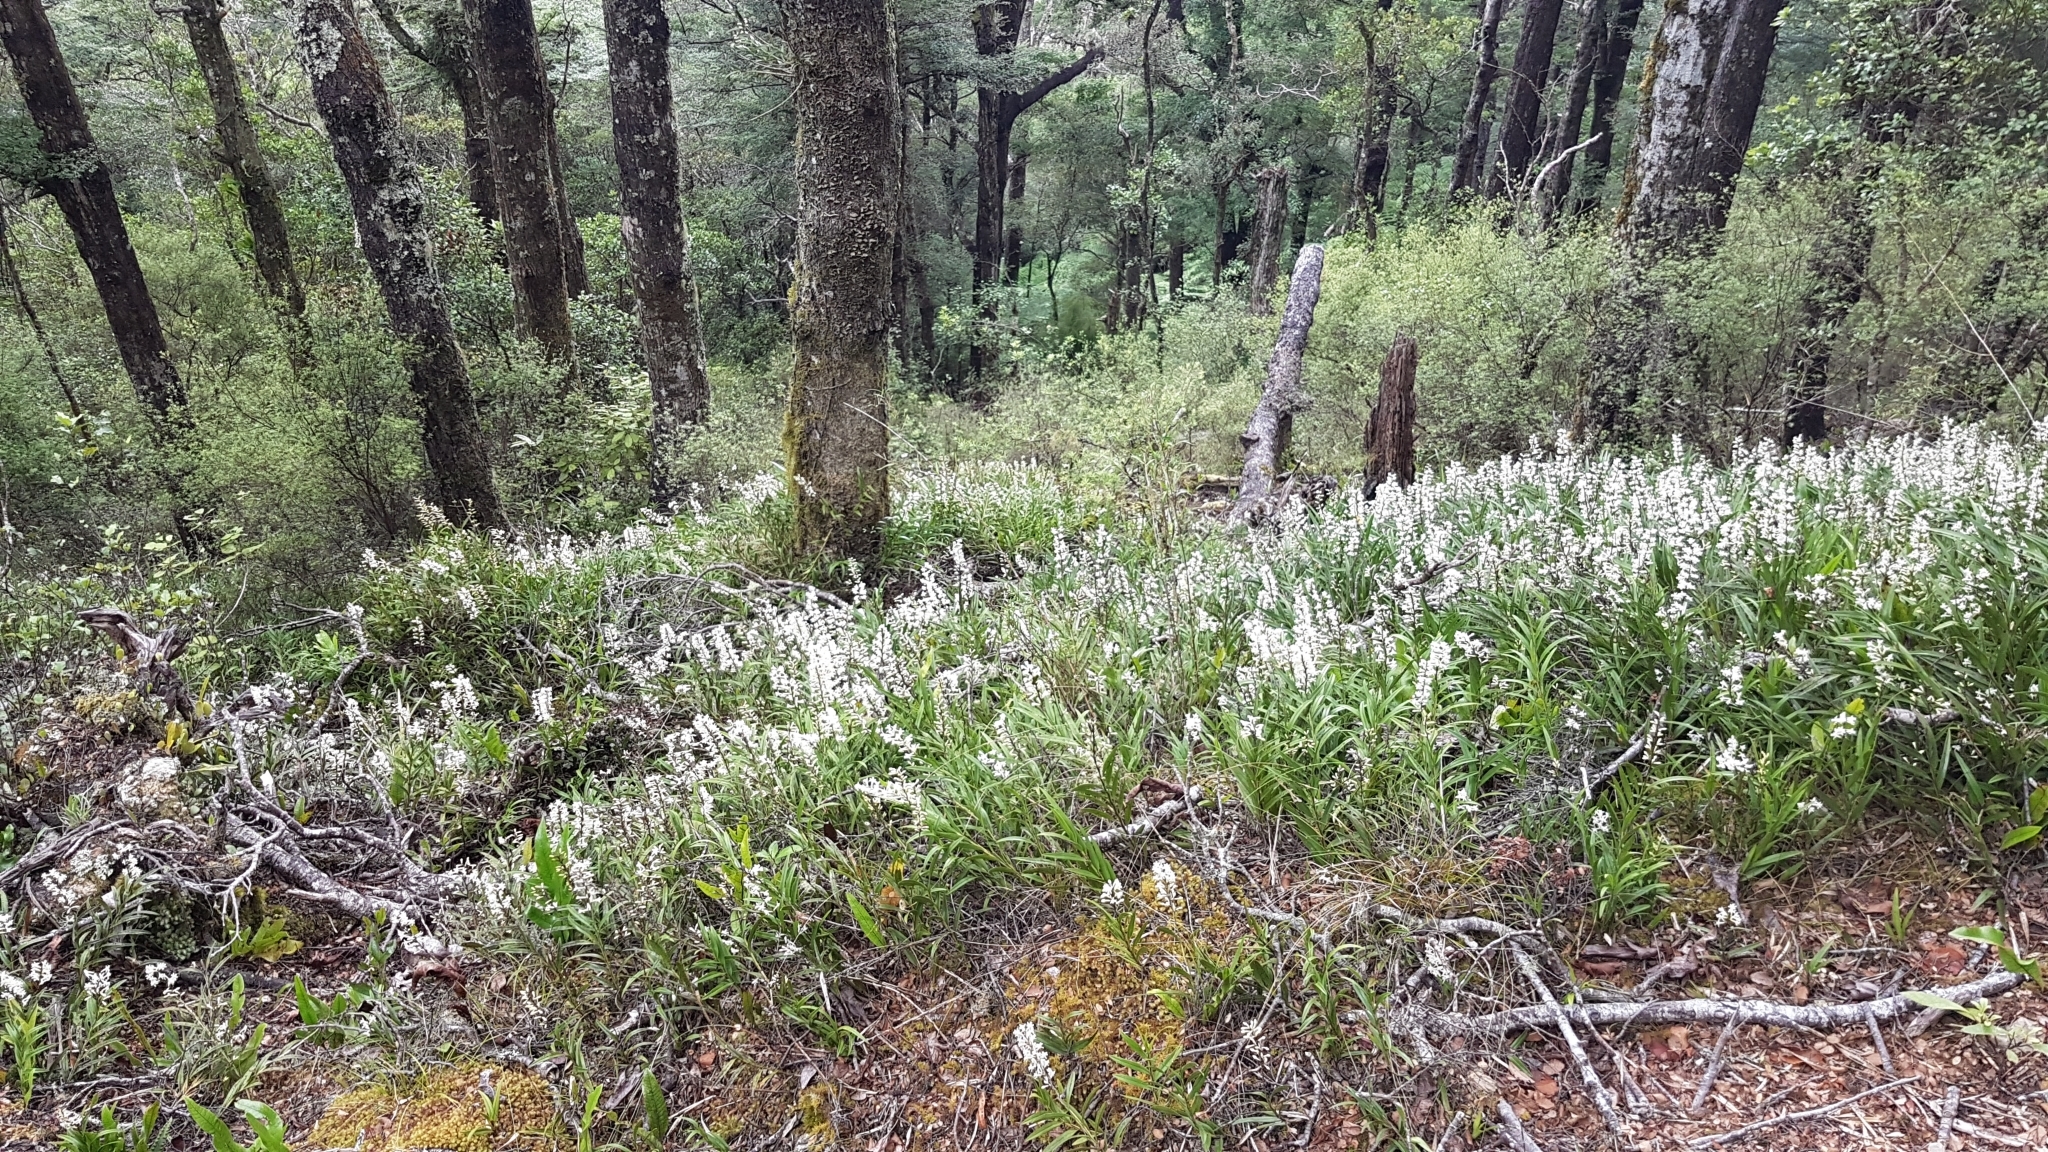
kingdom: Plantae
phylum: Tracheophyta
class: Liliopsida
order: Asparagales
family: Orchidaceae
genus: Earina
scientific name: Earina autumnalis
